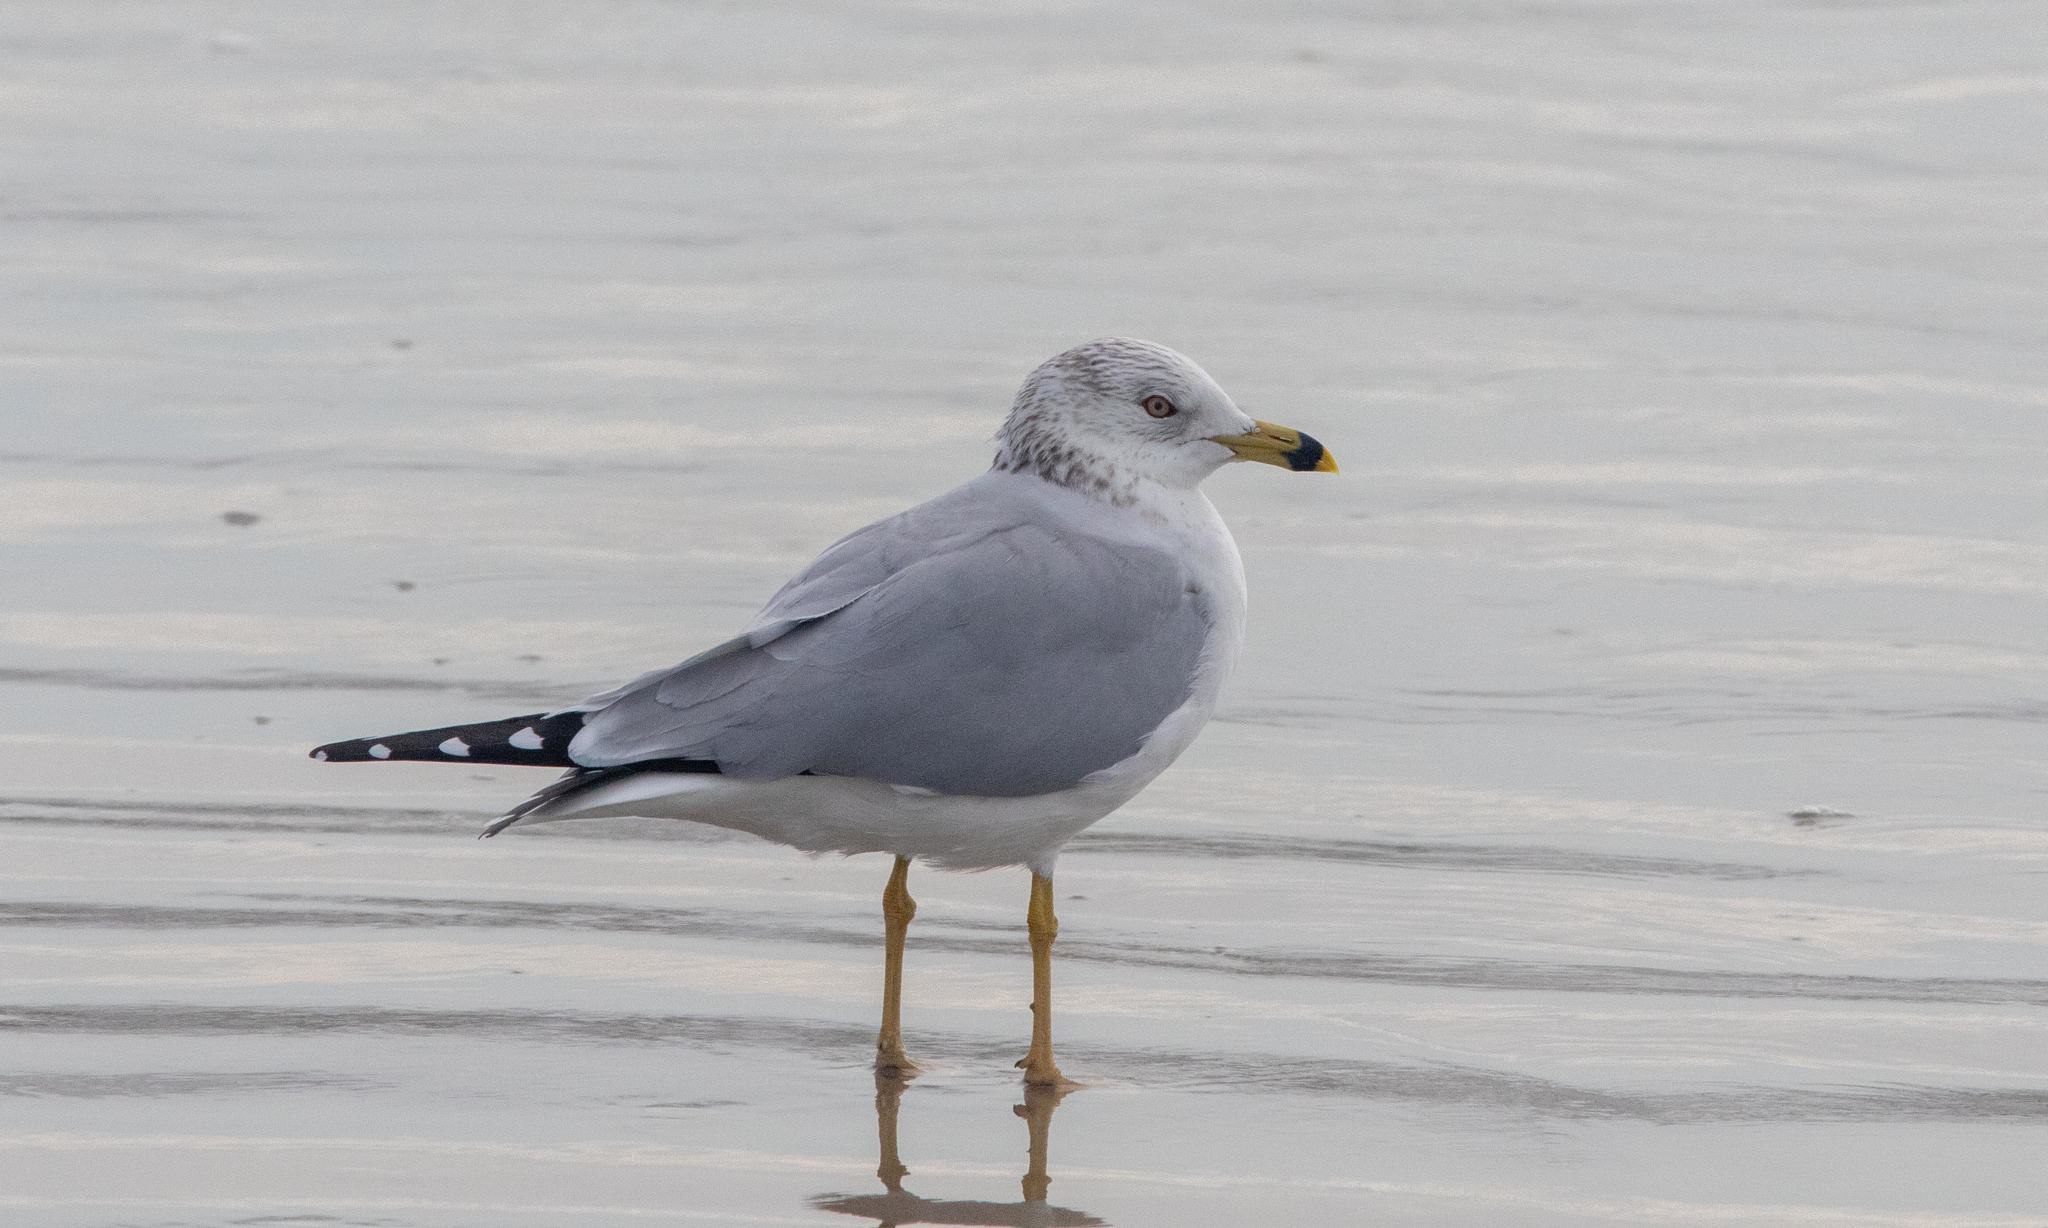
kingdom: Animalia
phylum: Chordata
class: Aves
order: Charadriiformes
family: Laridae
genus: Larus
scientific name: Larus delawarensis
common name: Ring-billed gull
